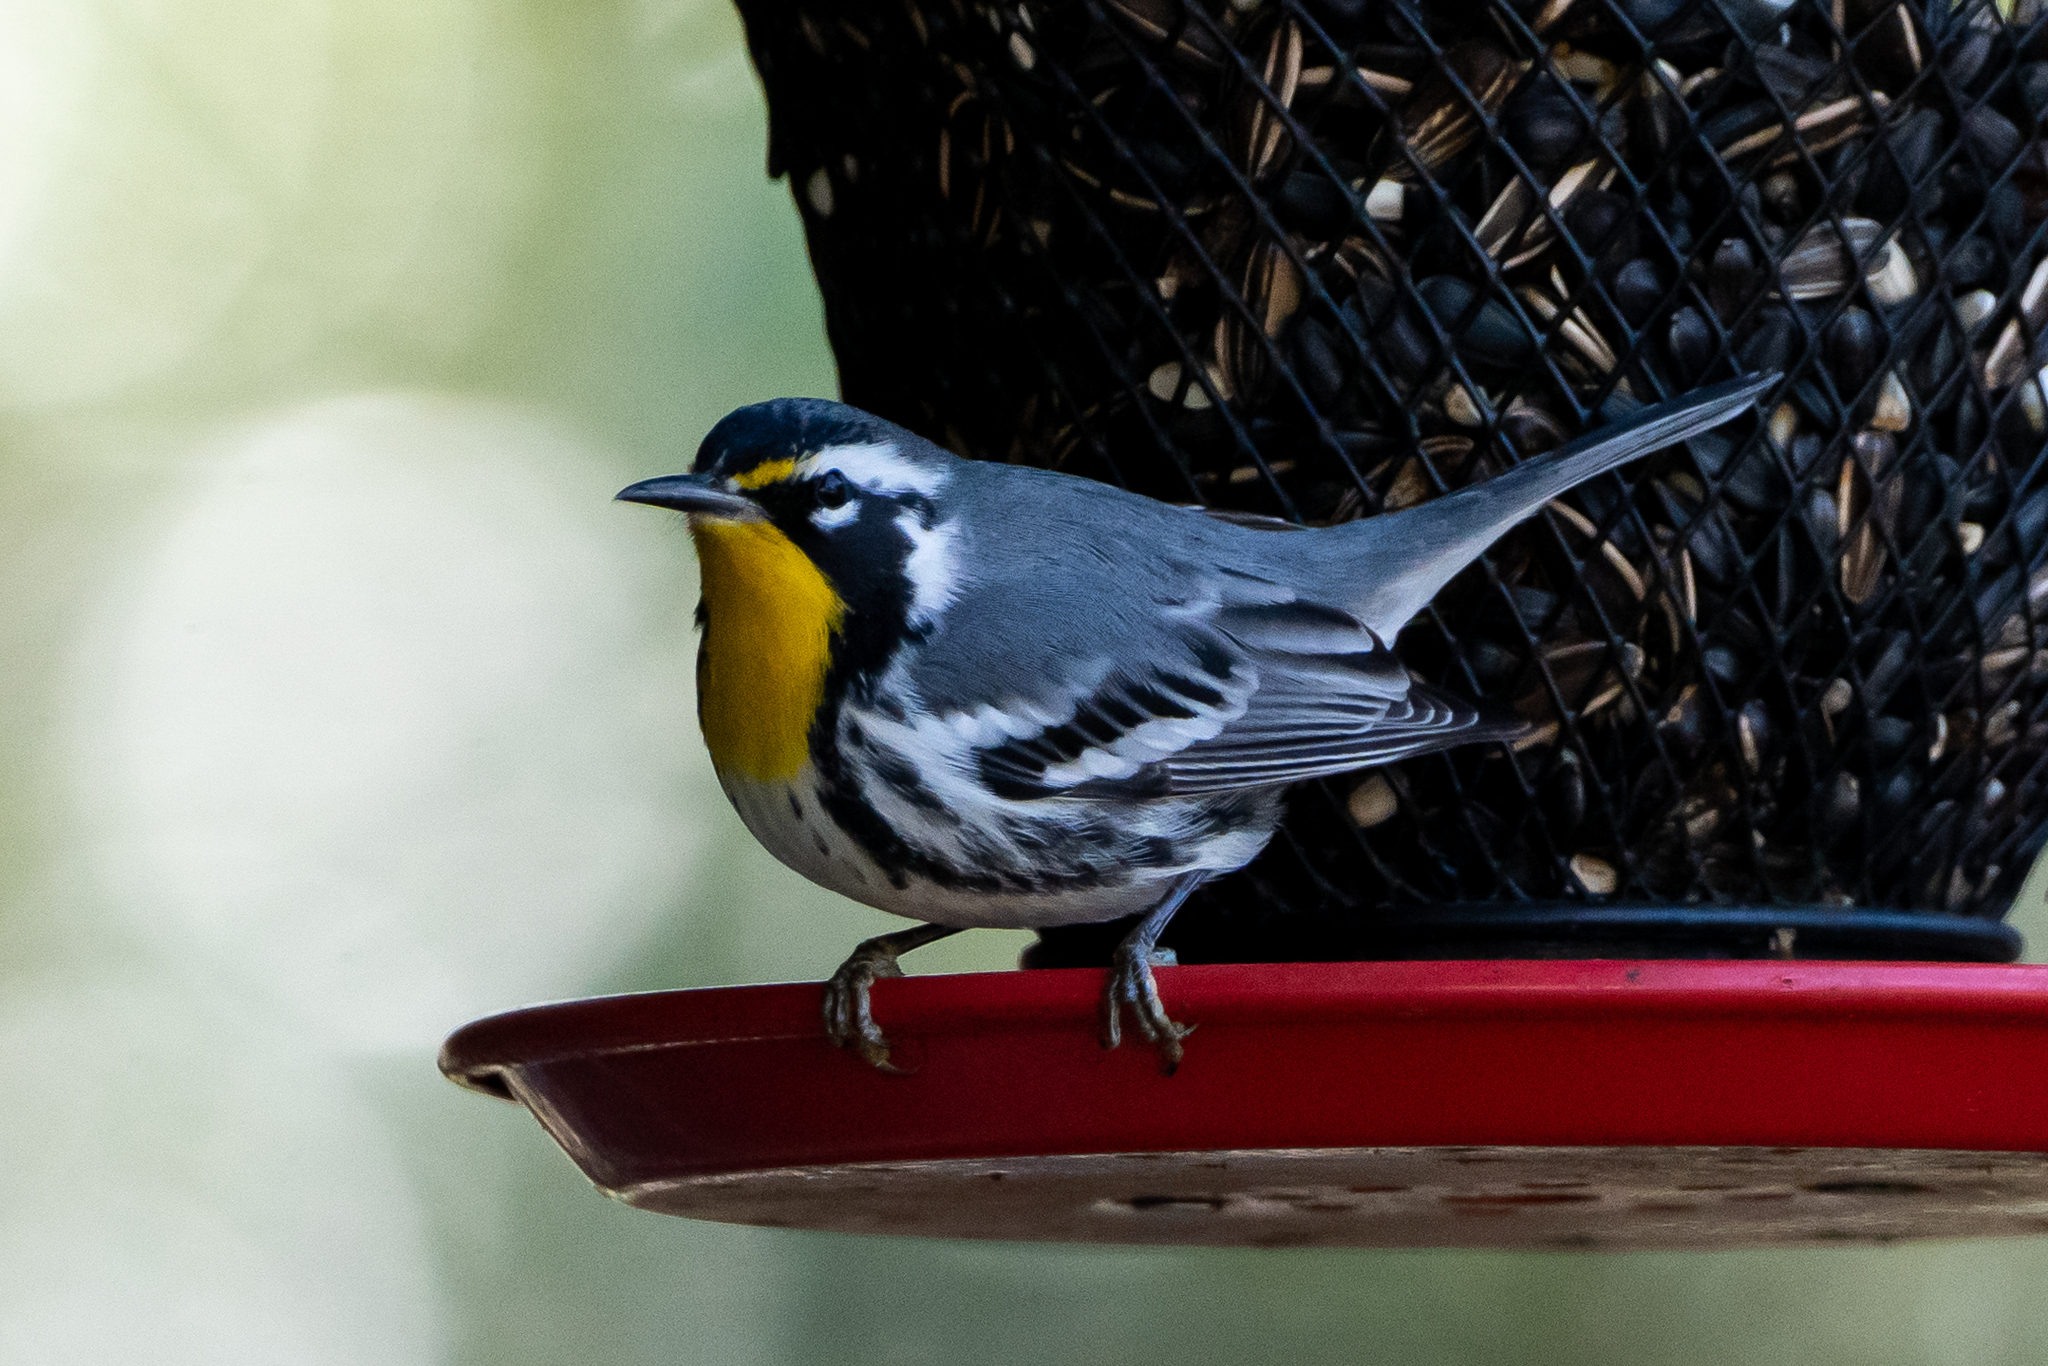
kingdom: Animalia
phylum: Chordata
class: Aves
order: Passeriformes
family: Parulidae
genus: Setophaga
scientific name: Setophaga dominica
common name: Yellow-throated warbler
